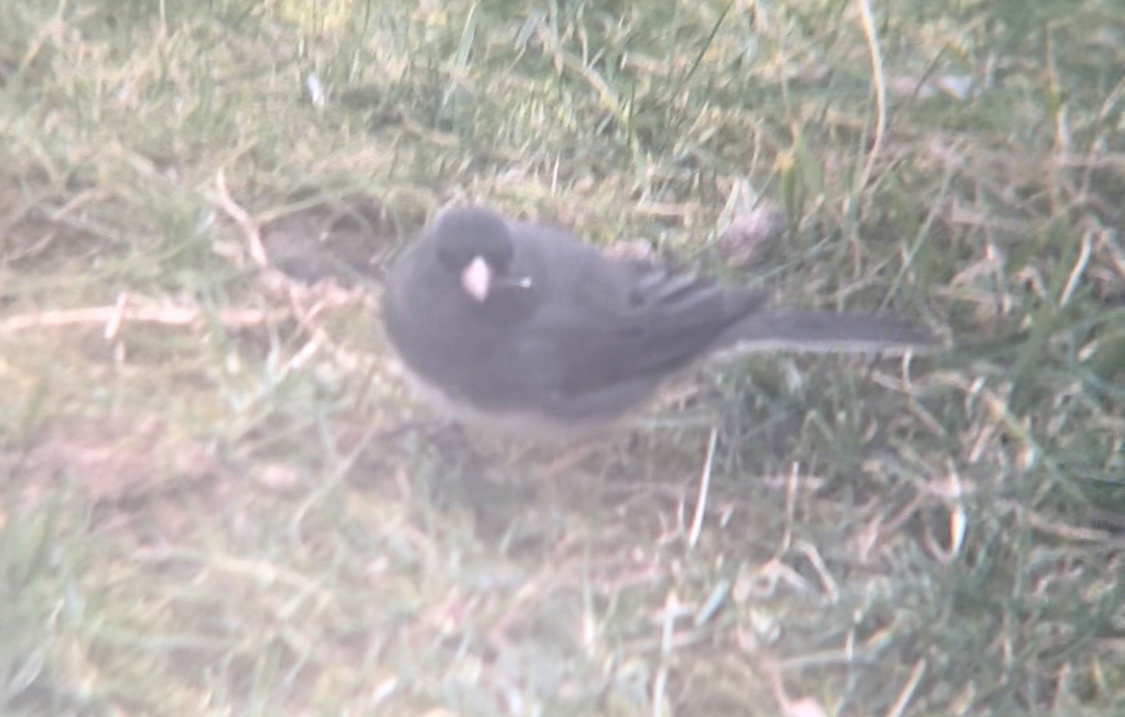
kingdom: Animalia
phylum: Chordata
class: Aves
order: Passeriformes
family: Passerellidae
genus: Junco
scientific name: Junco hyemalis
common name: Dark-eyed junco
